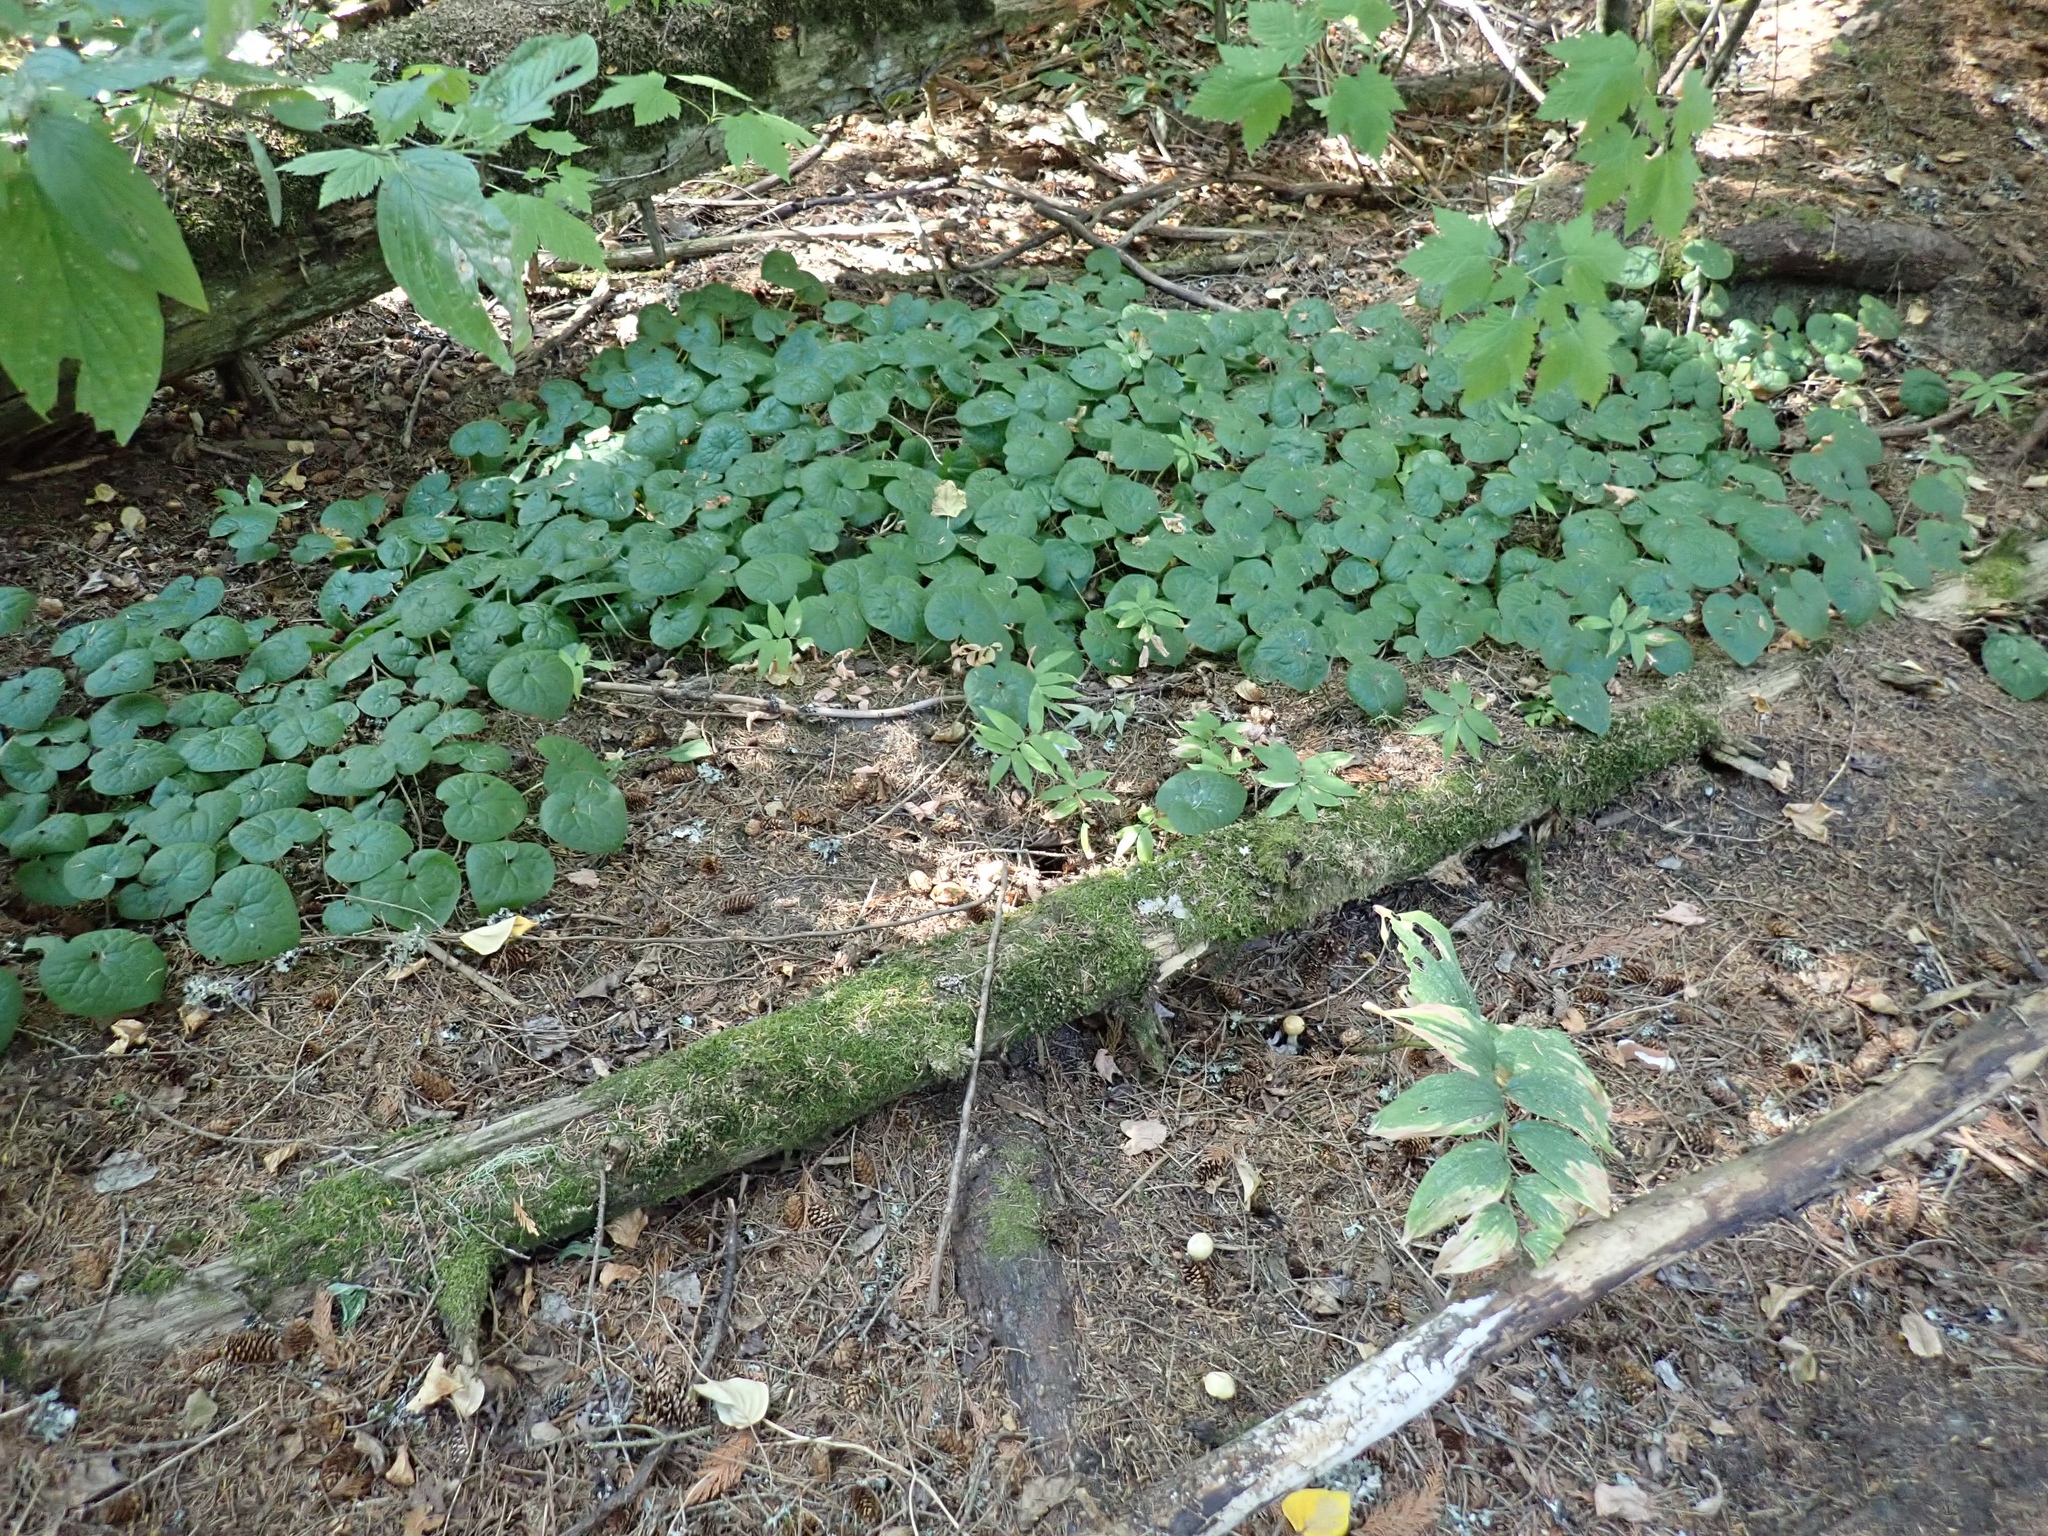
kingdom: Plantae
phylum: Tracheophyta
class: Magnoliopsida
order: Piperales
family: Aristolochiaceae
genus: Asarum
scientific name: Asarum caudatum
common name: Wild ginger
